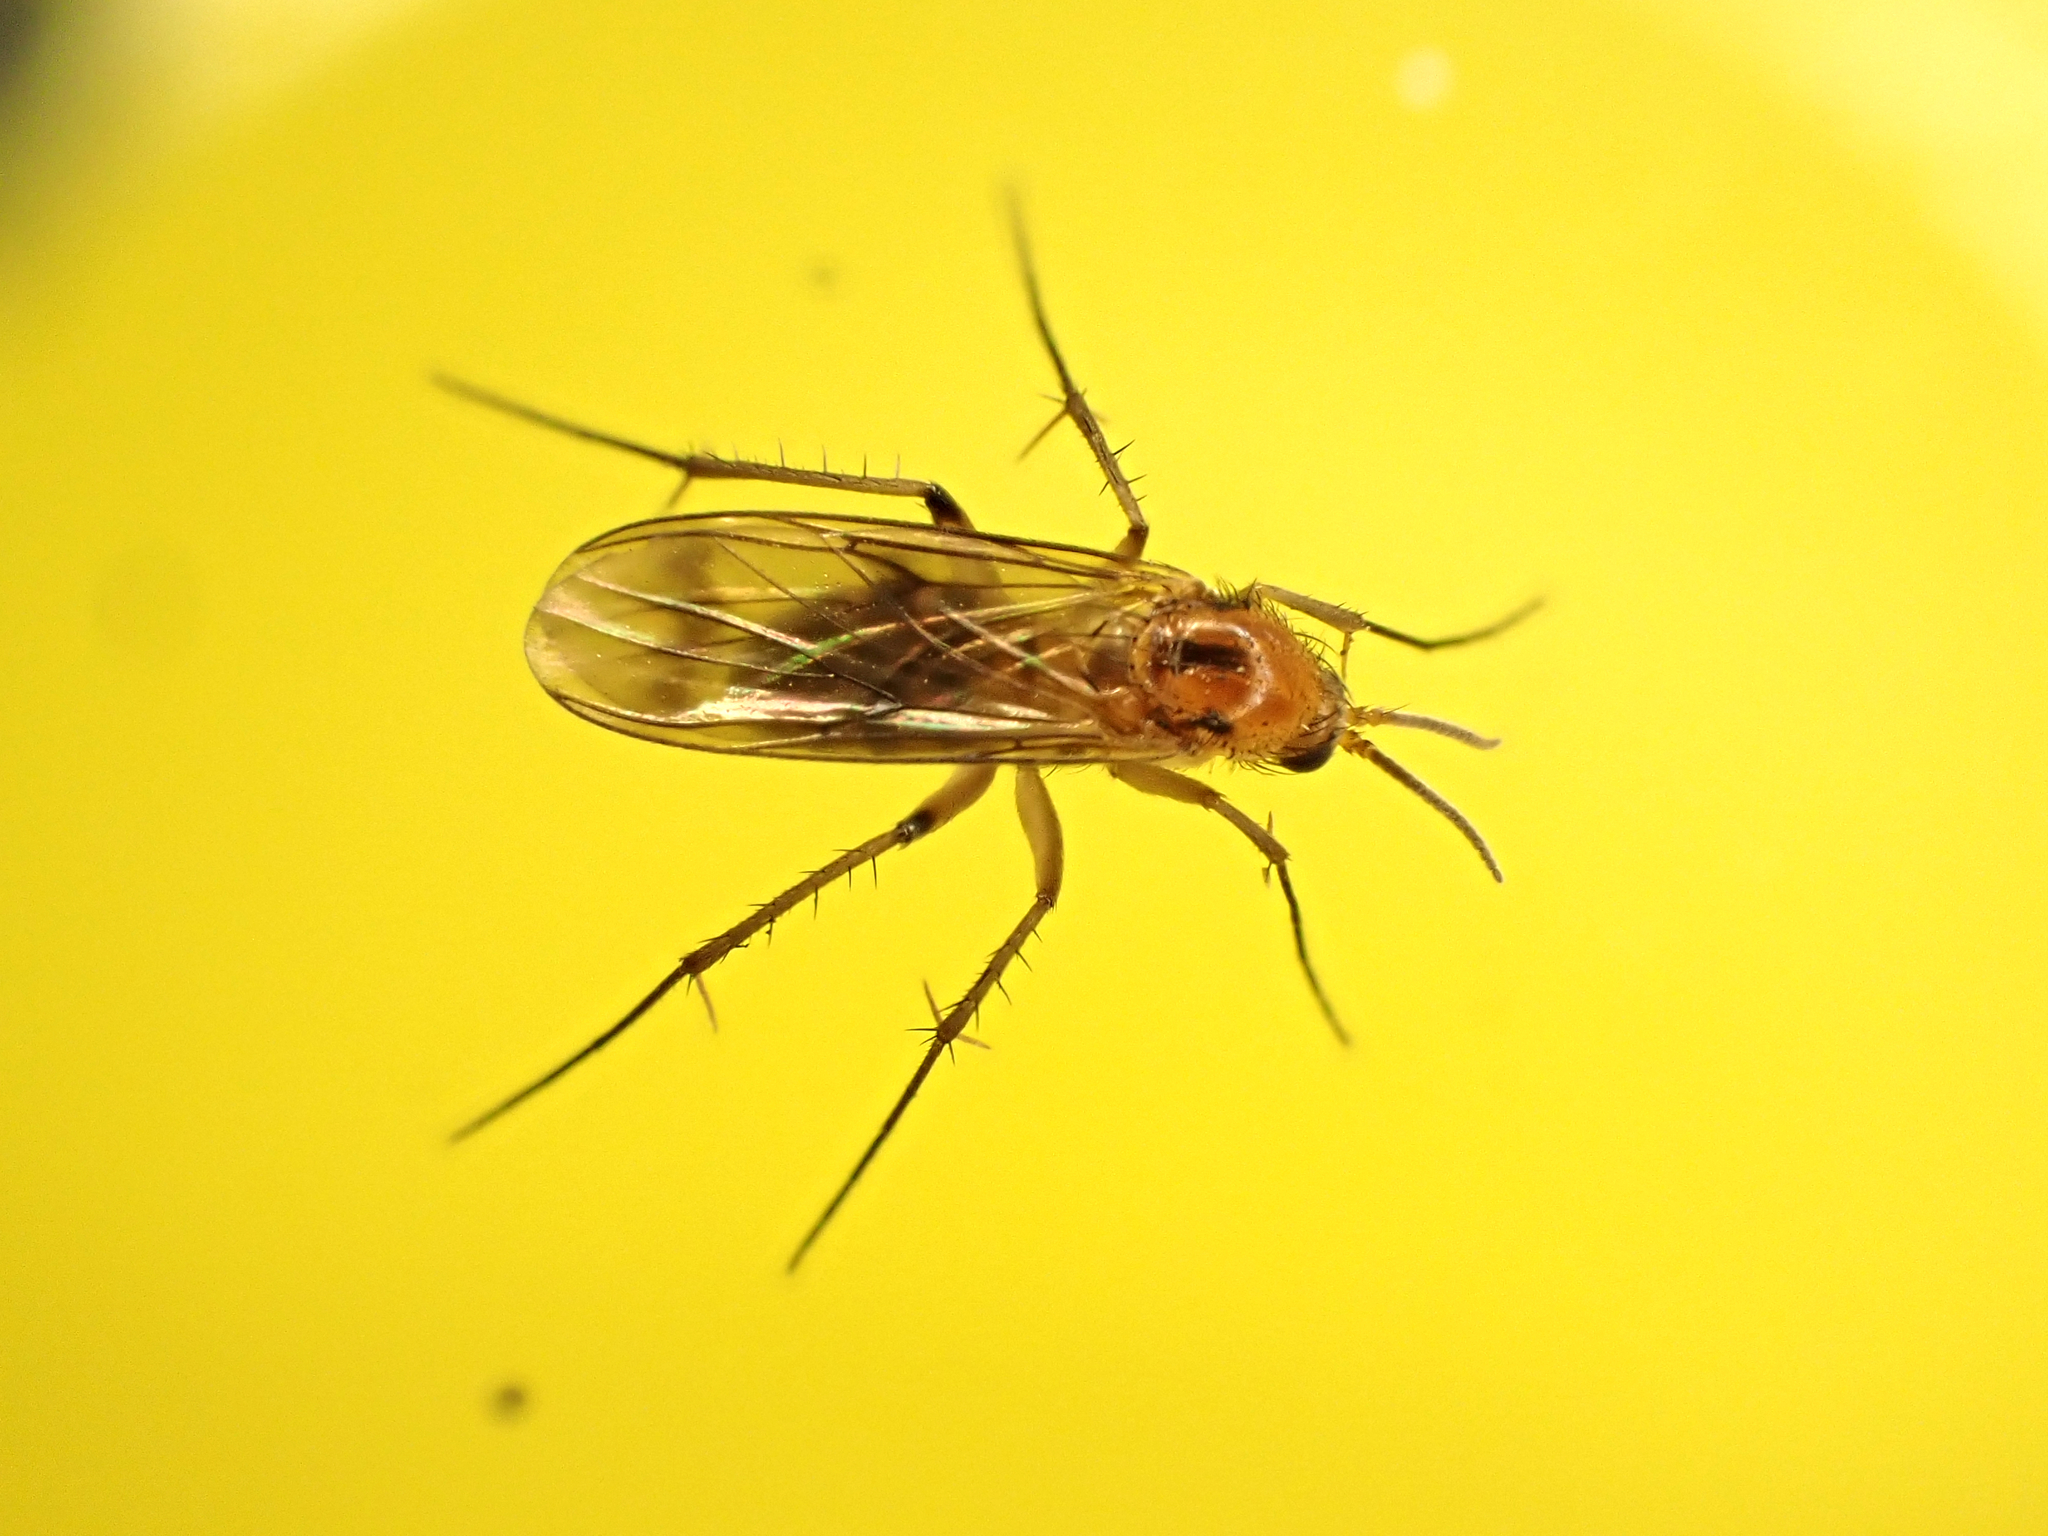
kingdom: Animalia
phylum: Arthropoda
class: Insecta
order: Diptera
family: Mycetophilidae
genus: Anomalomyia
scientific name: Anomalomyia guttata
